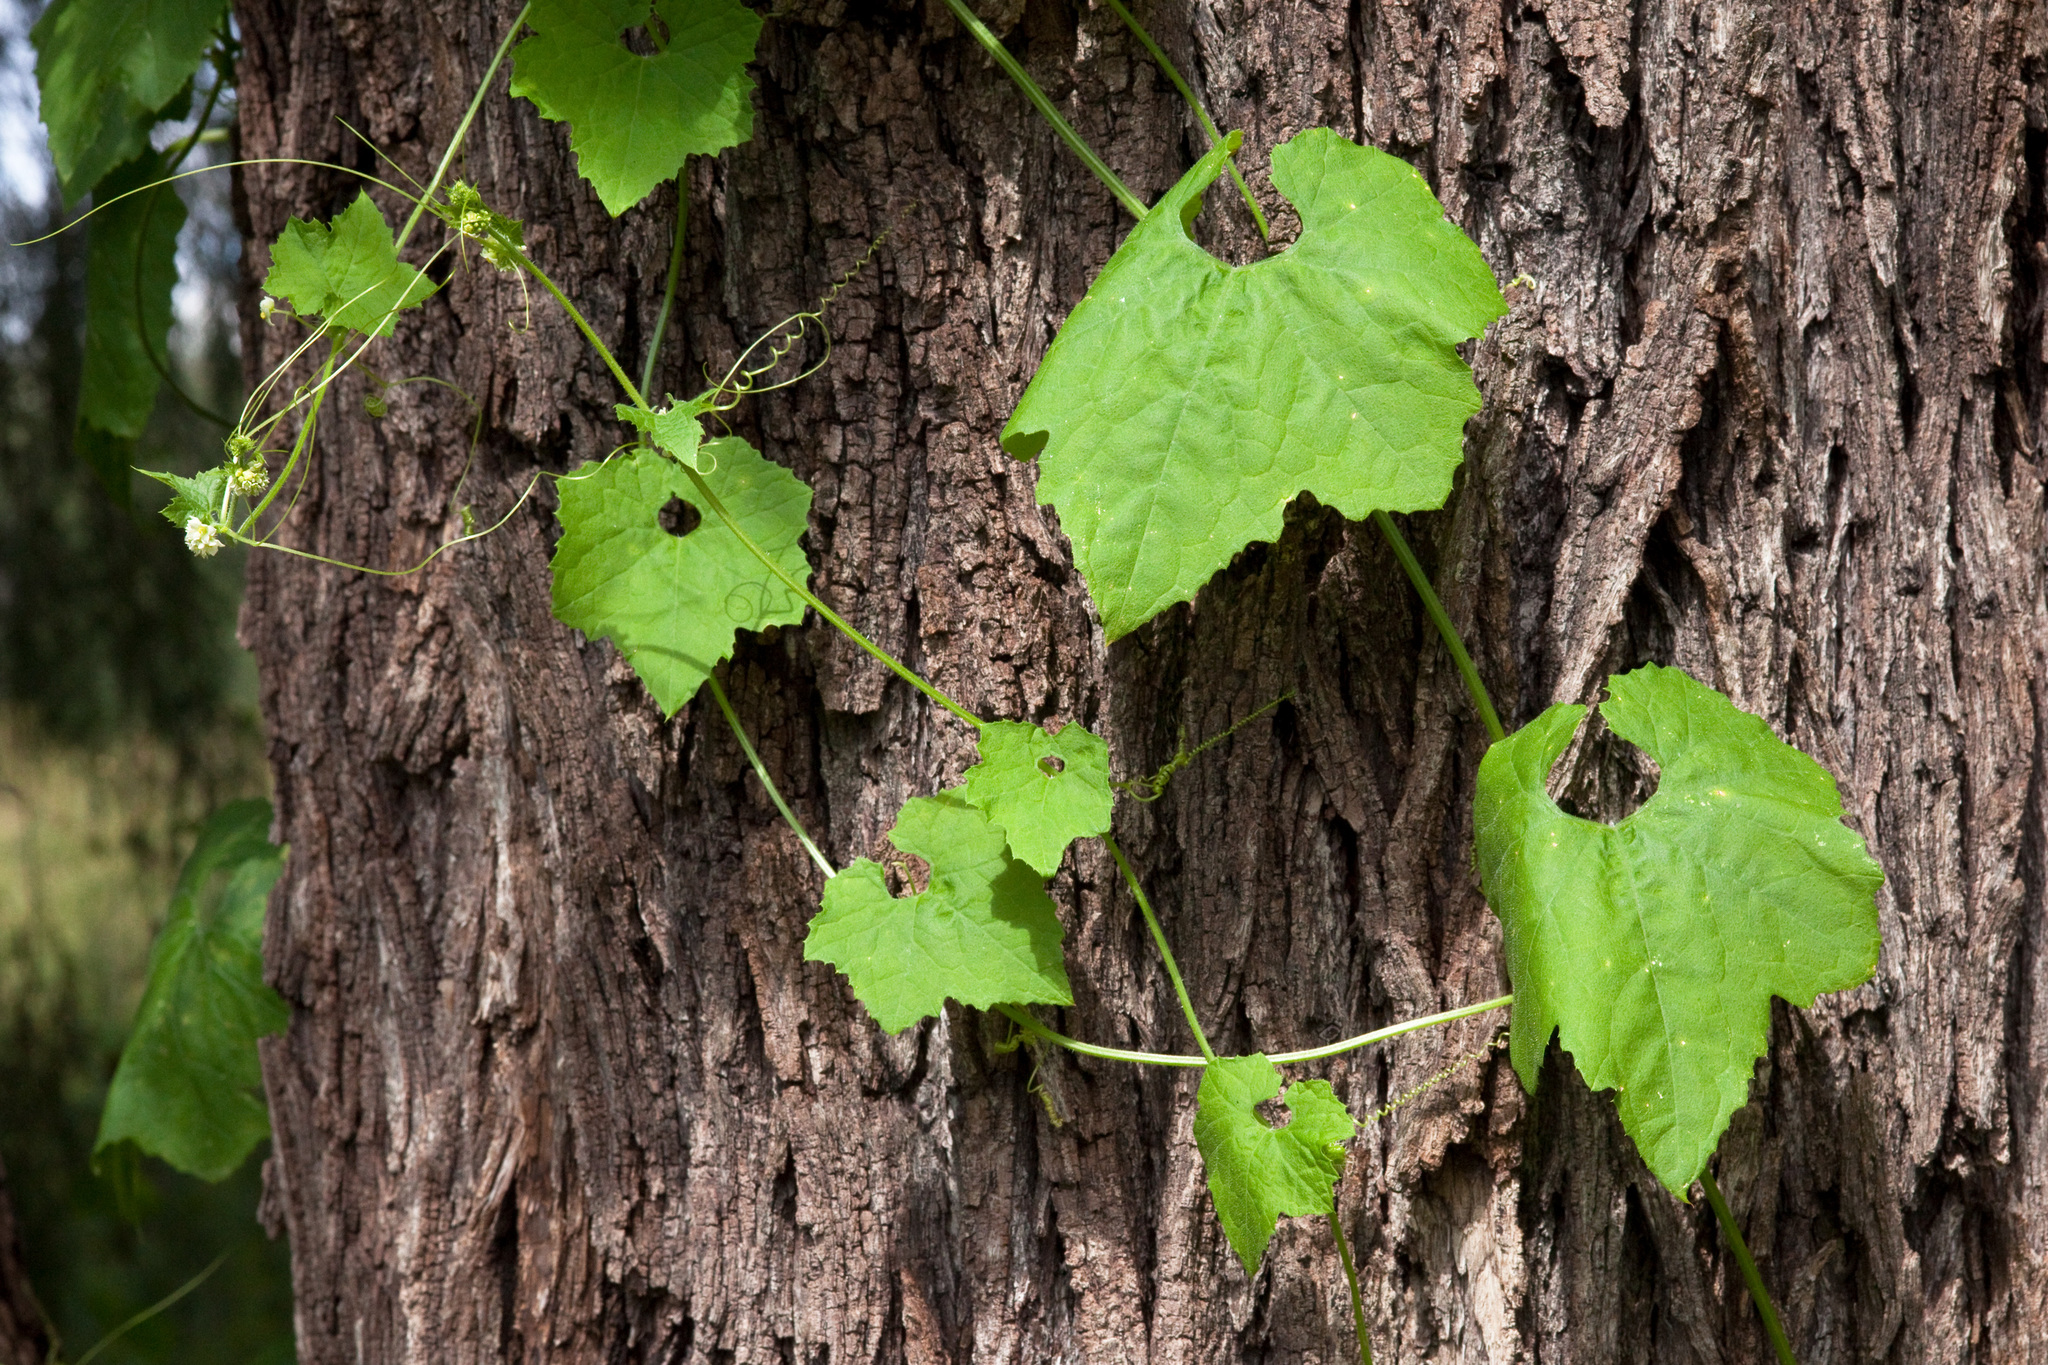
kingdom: Plantae
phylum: Tracheophyta
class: Magnoliopsida
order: Cucurbitales
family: Cucurbitaceae
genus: Sicyos
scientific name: Sicyos laciniatus
